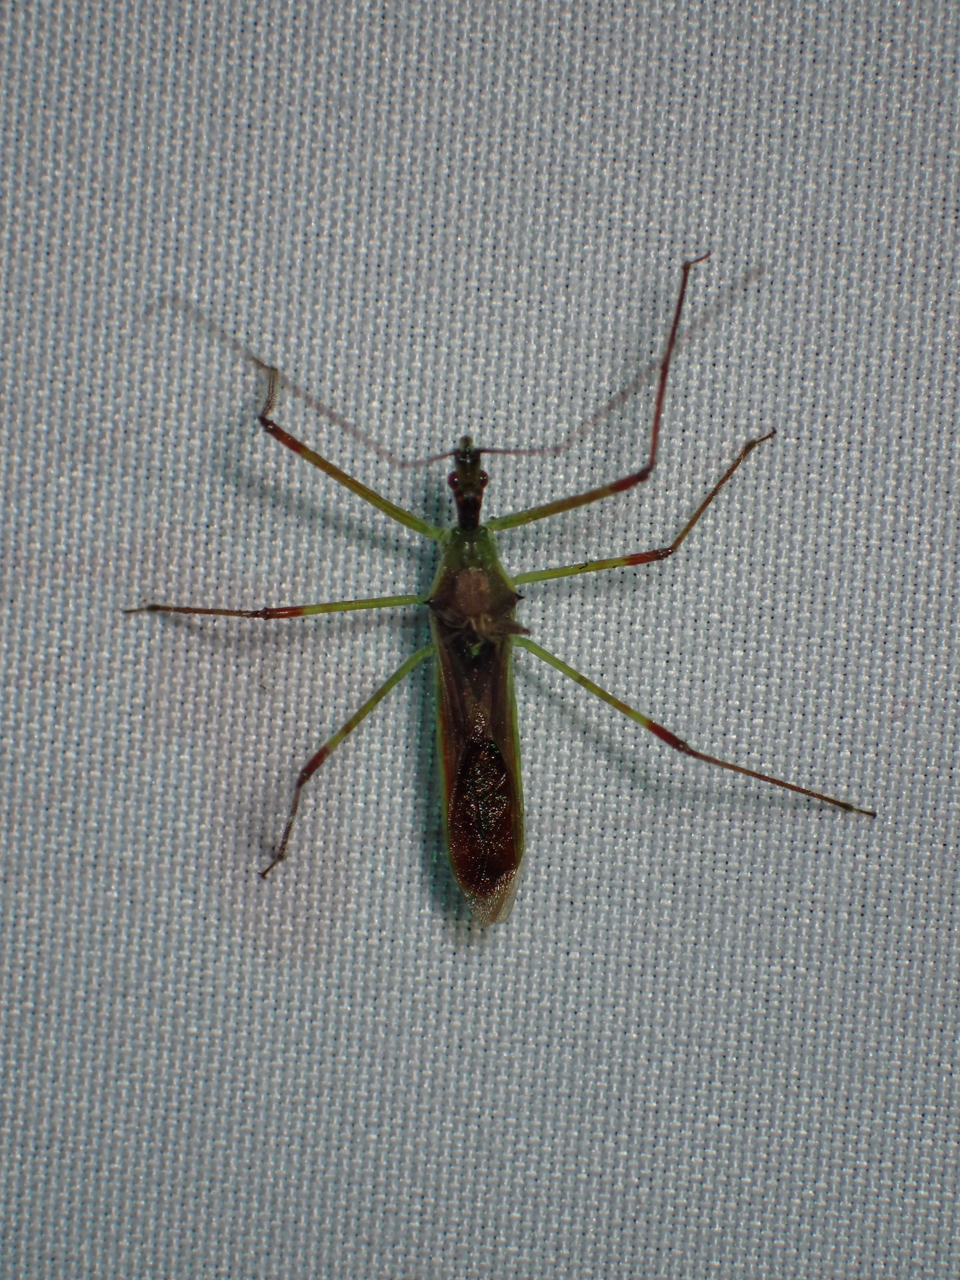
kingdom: Animalia
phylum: Arthropoda
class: Insecta
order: Hemiptera
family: Reduviidae
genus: Zelus
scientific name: Zelus luridus
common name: Pale green assassin bug
